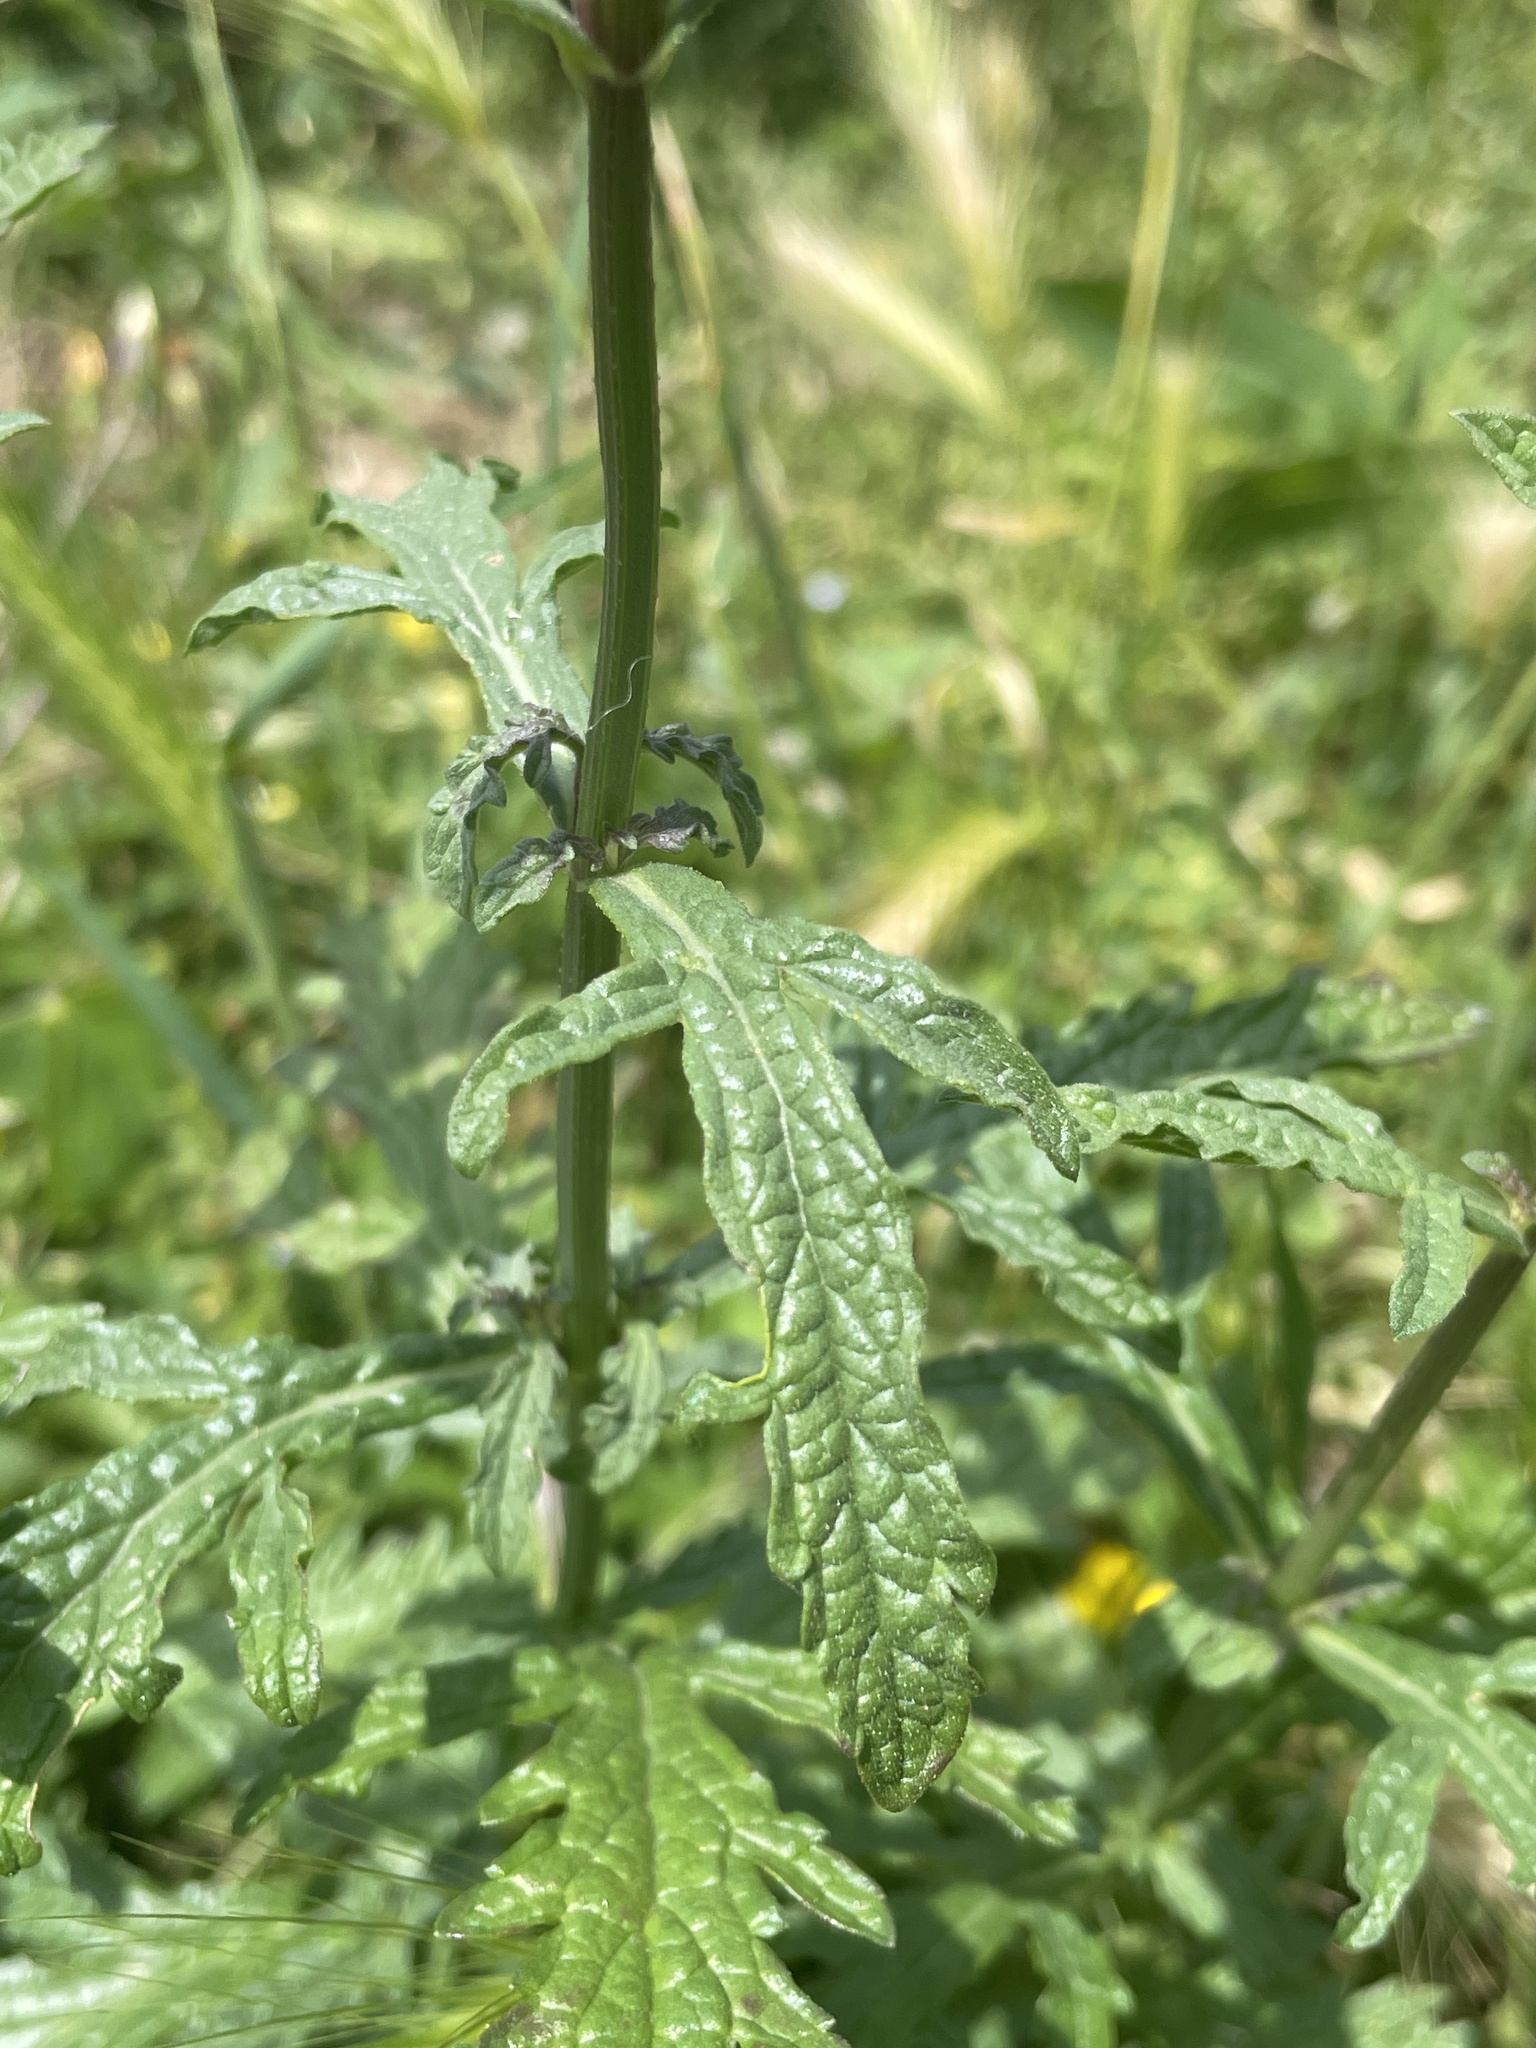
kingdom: Plantae
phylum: Tracheophyta
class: Magnoliopsida
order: Lamiales
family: Verbenaceae
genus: Verbena
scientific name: Verbena officinalis
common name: Vervain
